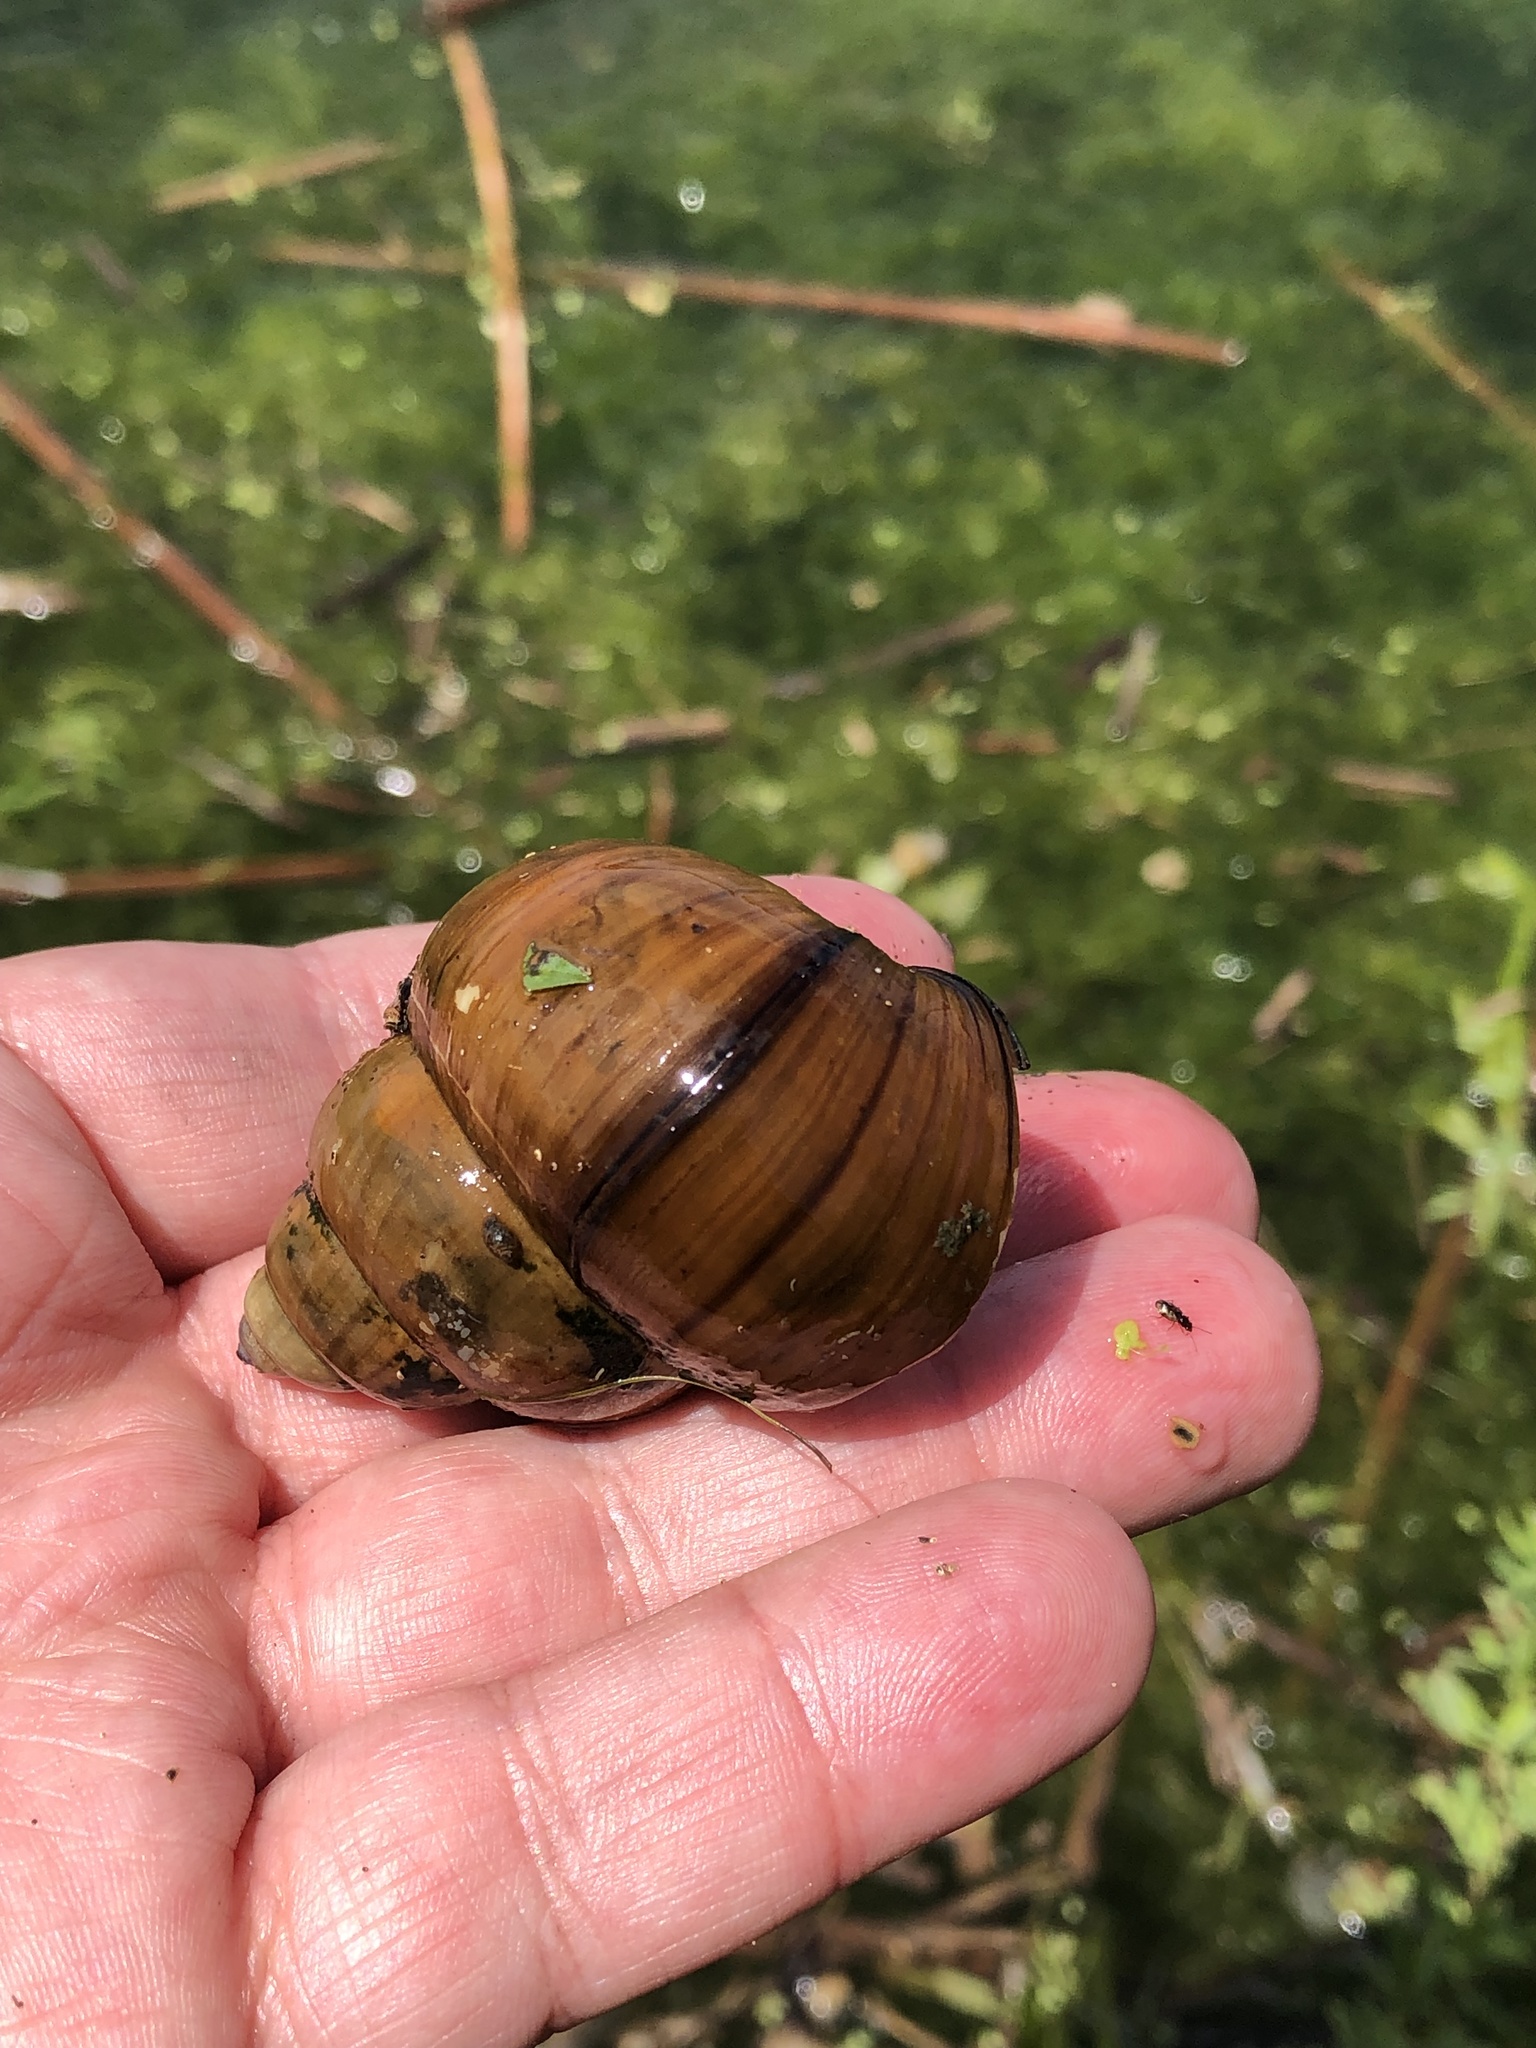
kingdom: Animalia
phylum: Mollusca
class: Gastropoda
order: Architaenioglossa
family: Viviparidae
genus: Cipangopaludina
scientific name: Cipangopaludina chinensis
